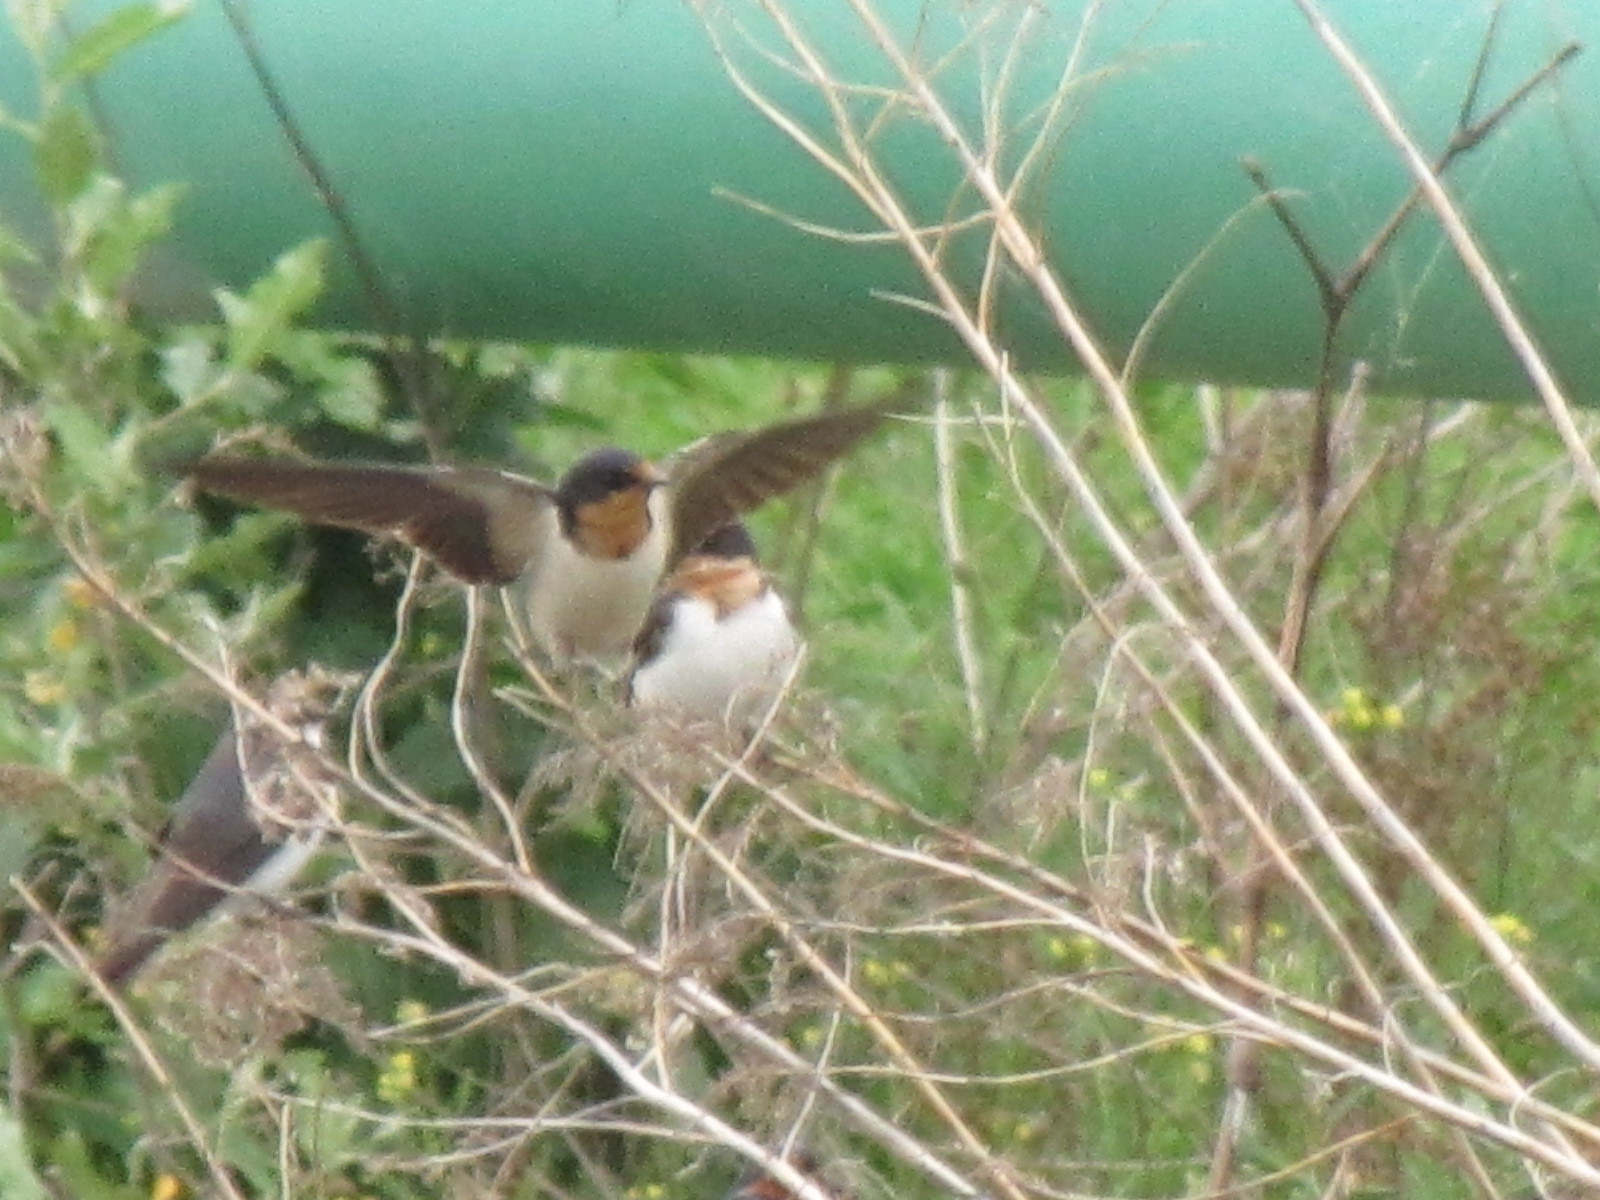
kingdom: Animalia
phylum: Chordata
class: Aves
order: Passeriformes
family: Hirundinidae
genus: Hirundo
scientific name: Hirundo rustica
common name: Barn swallow
